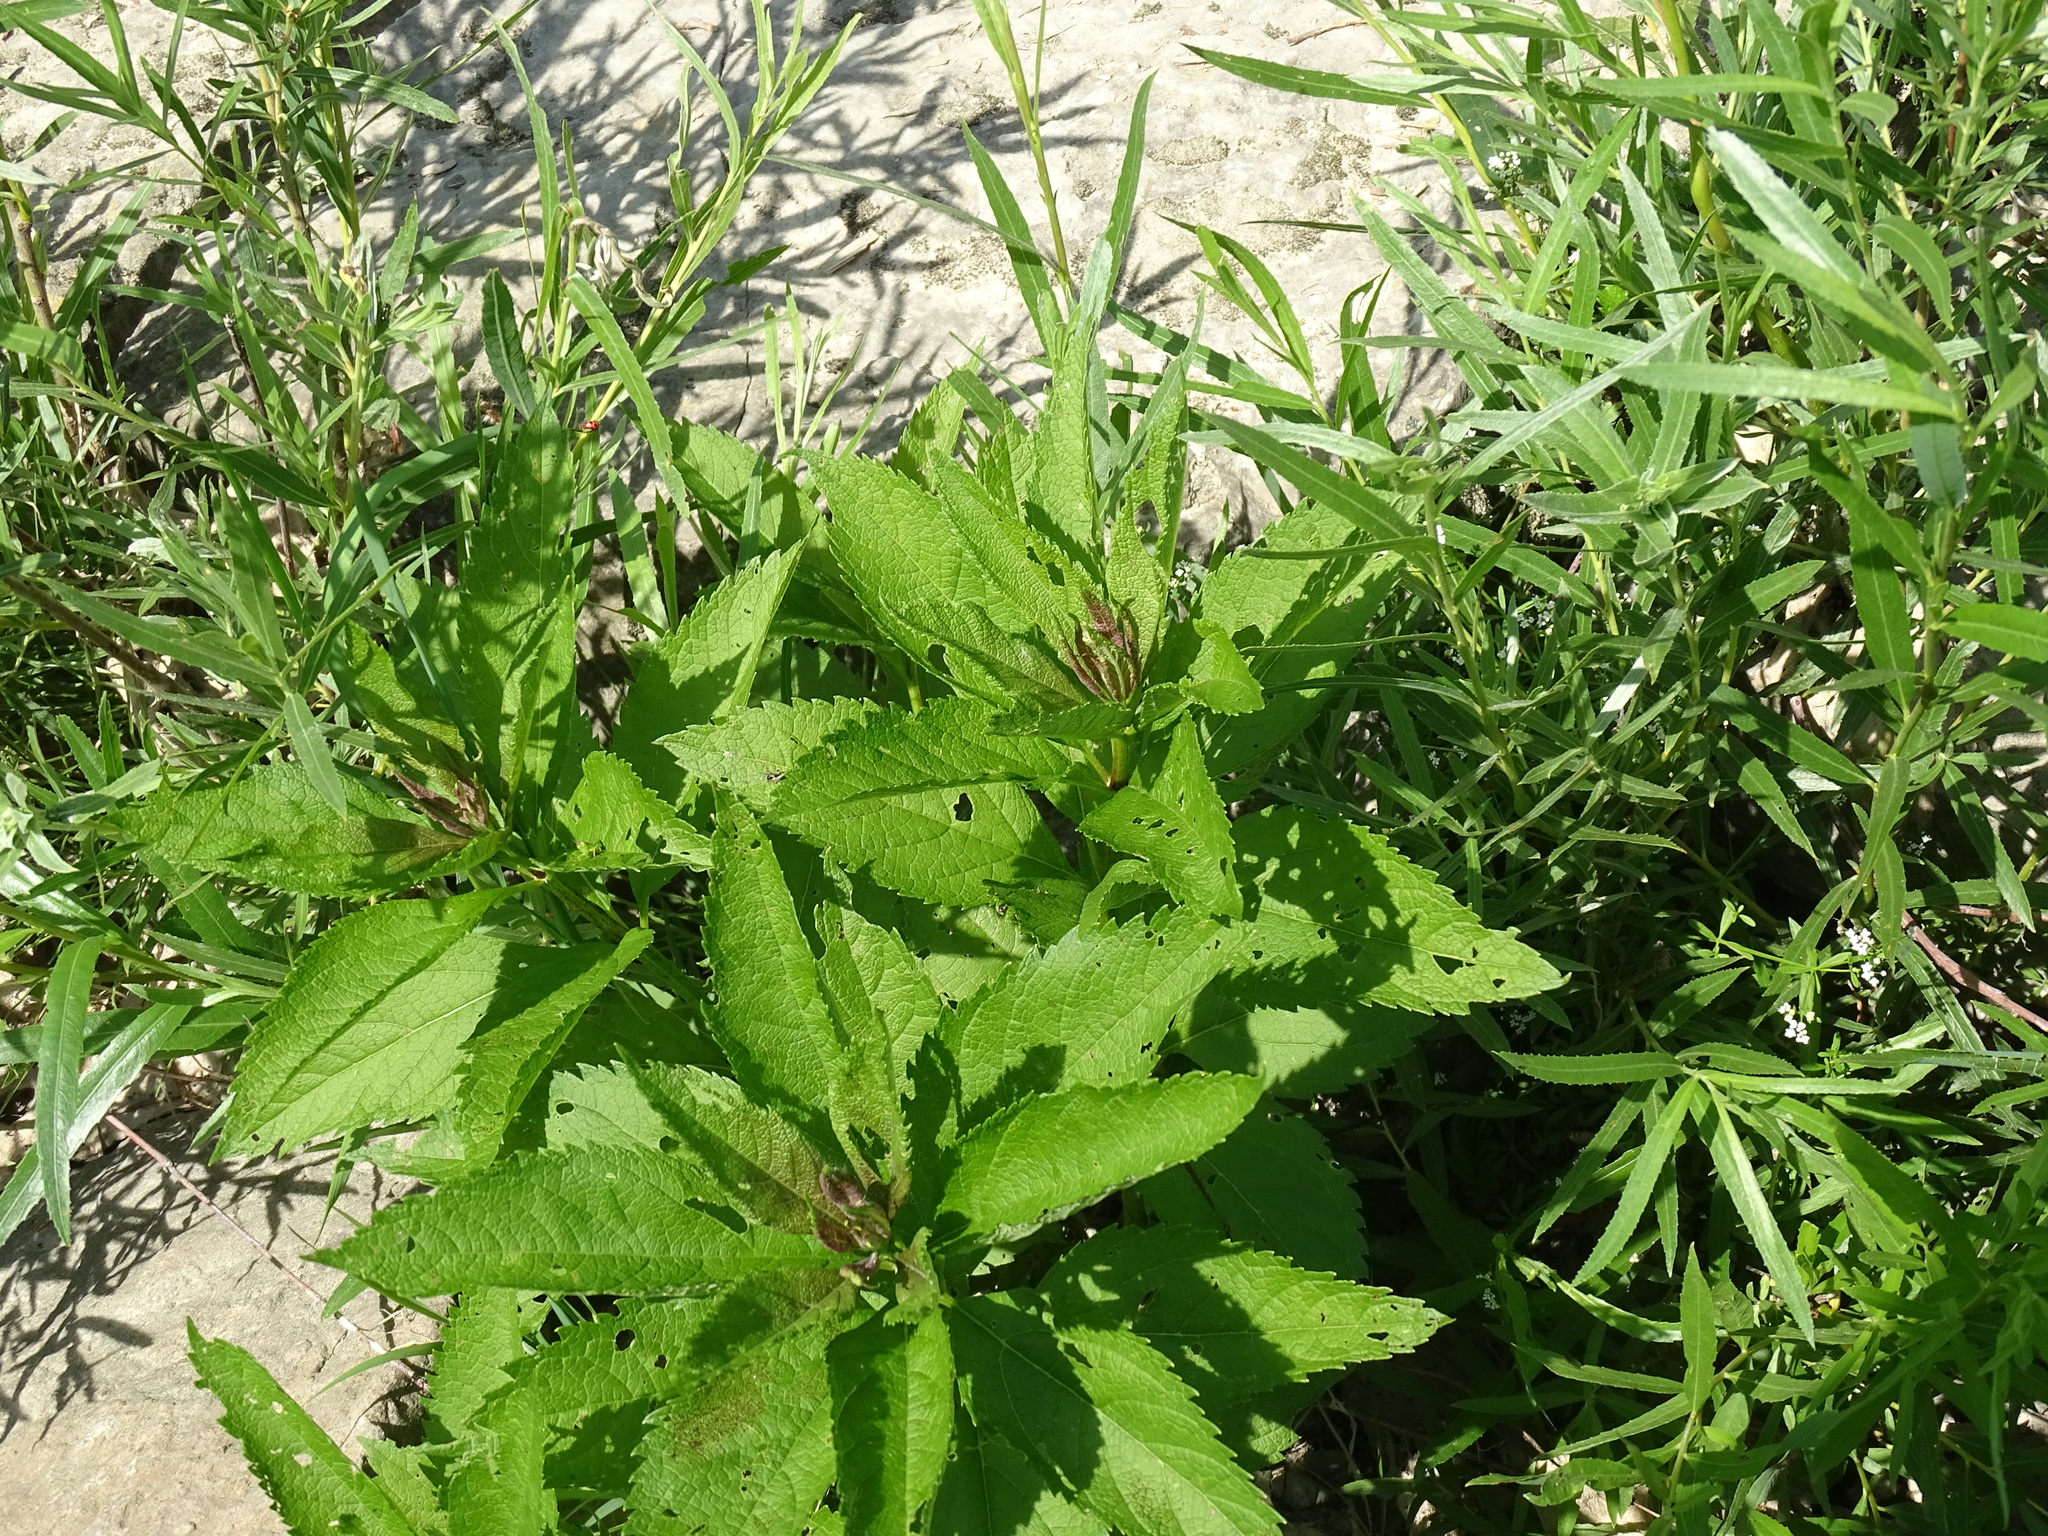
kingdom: Plantae
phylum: Tracheophyta
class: Magnoliopsida
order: Asterales
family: Asteraceae
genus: Eutrochium
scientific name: Eutrochium maculatum
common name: Spotted joe pye weed
